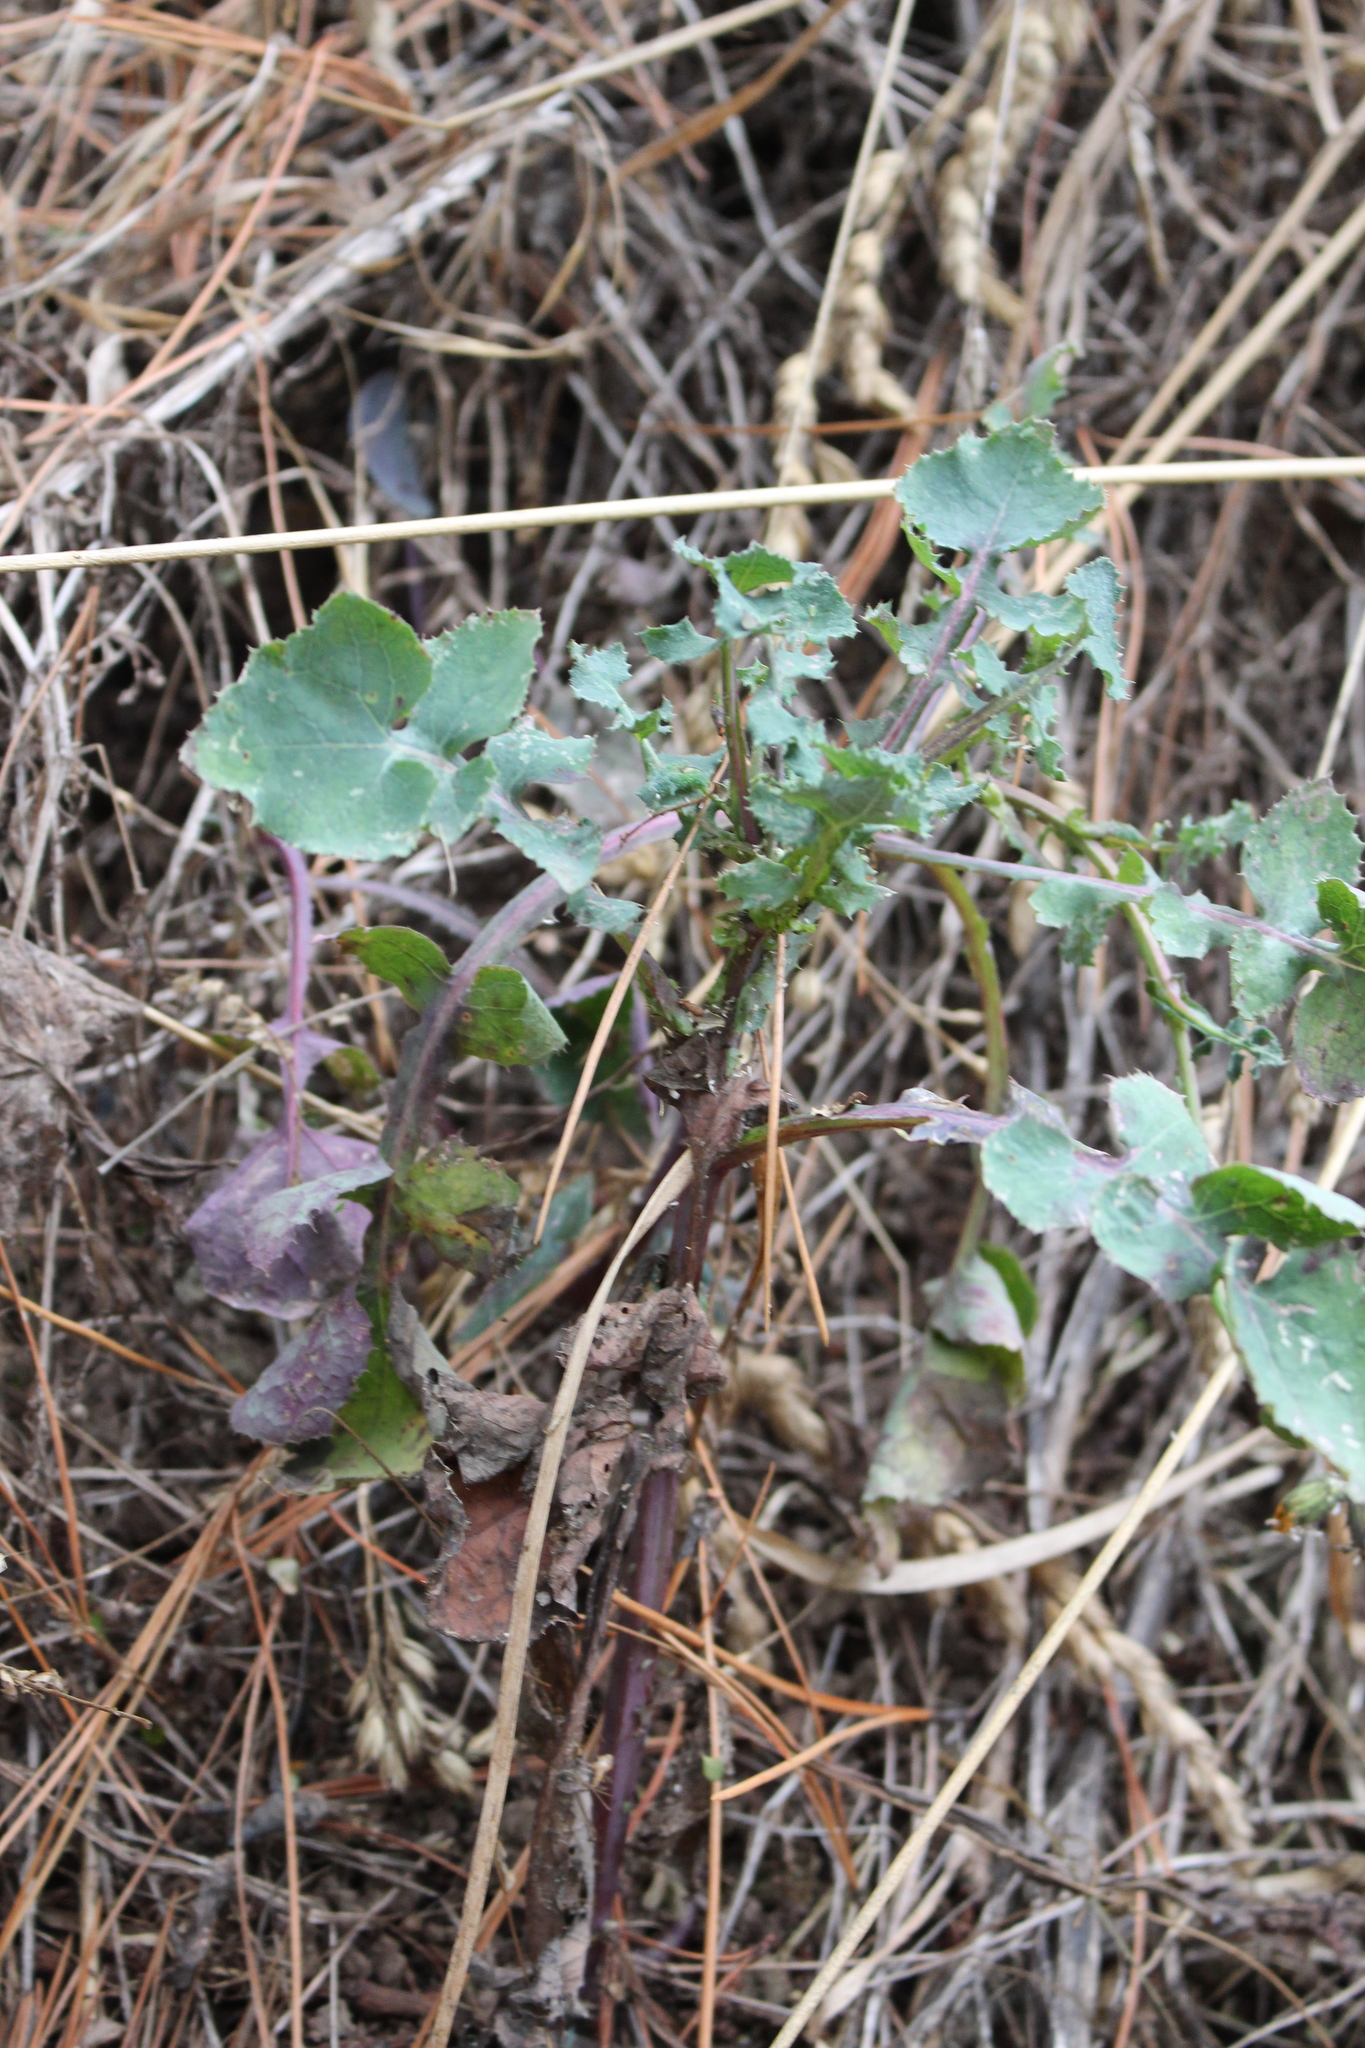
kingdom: Plantae
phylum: Tracheophyta
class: Magnoliopsida
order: Asterales
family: Asteraceae
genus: Sonchus
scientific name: Sonchus oleraceus
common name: Common sowthistle
